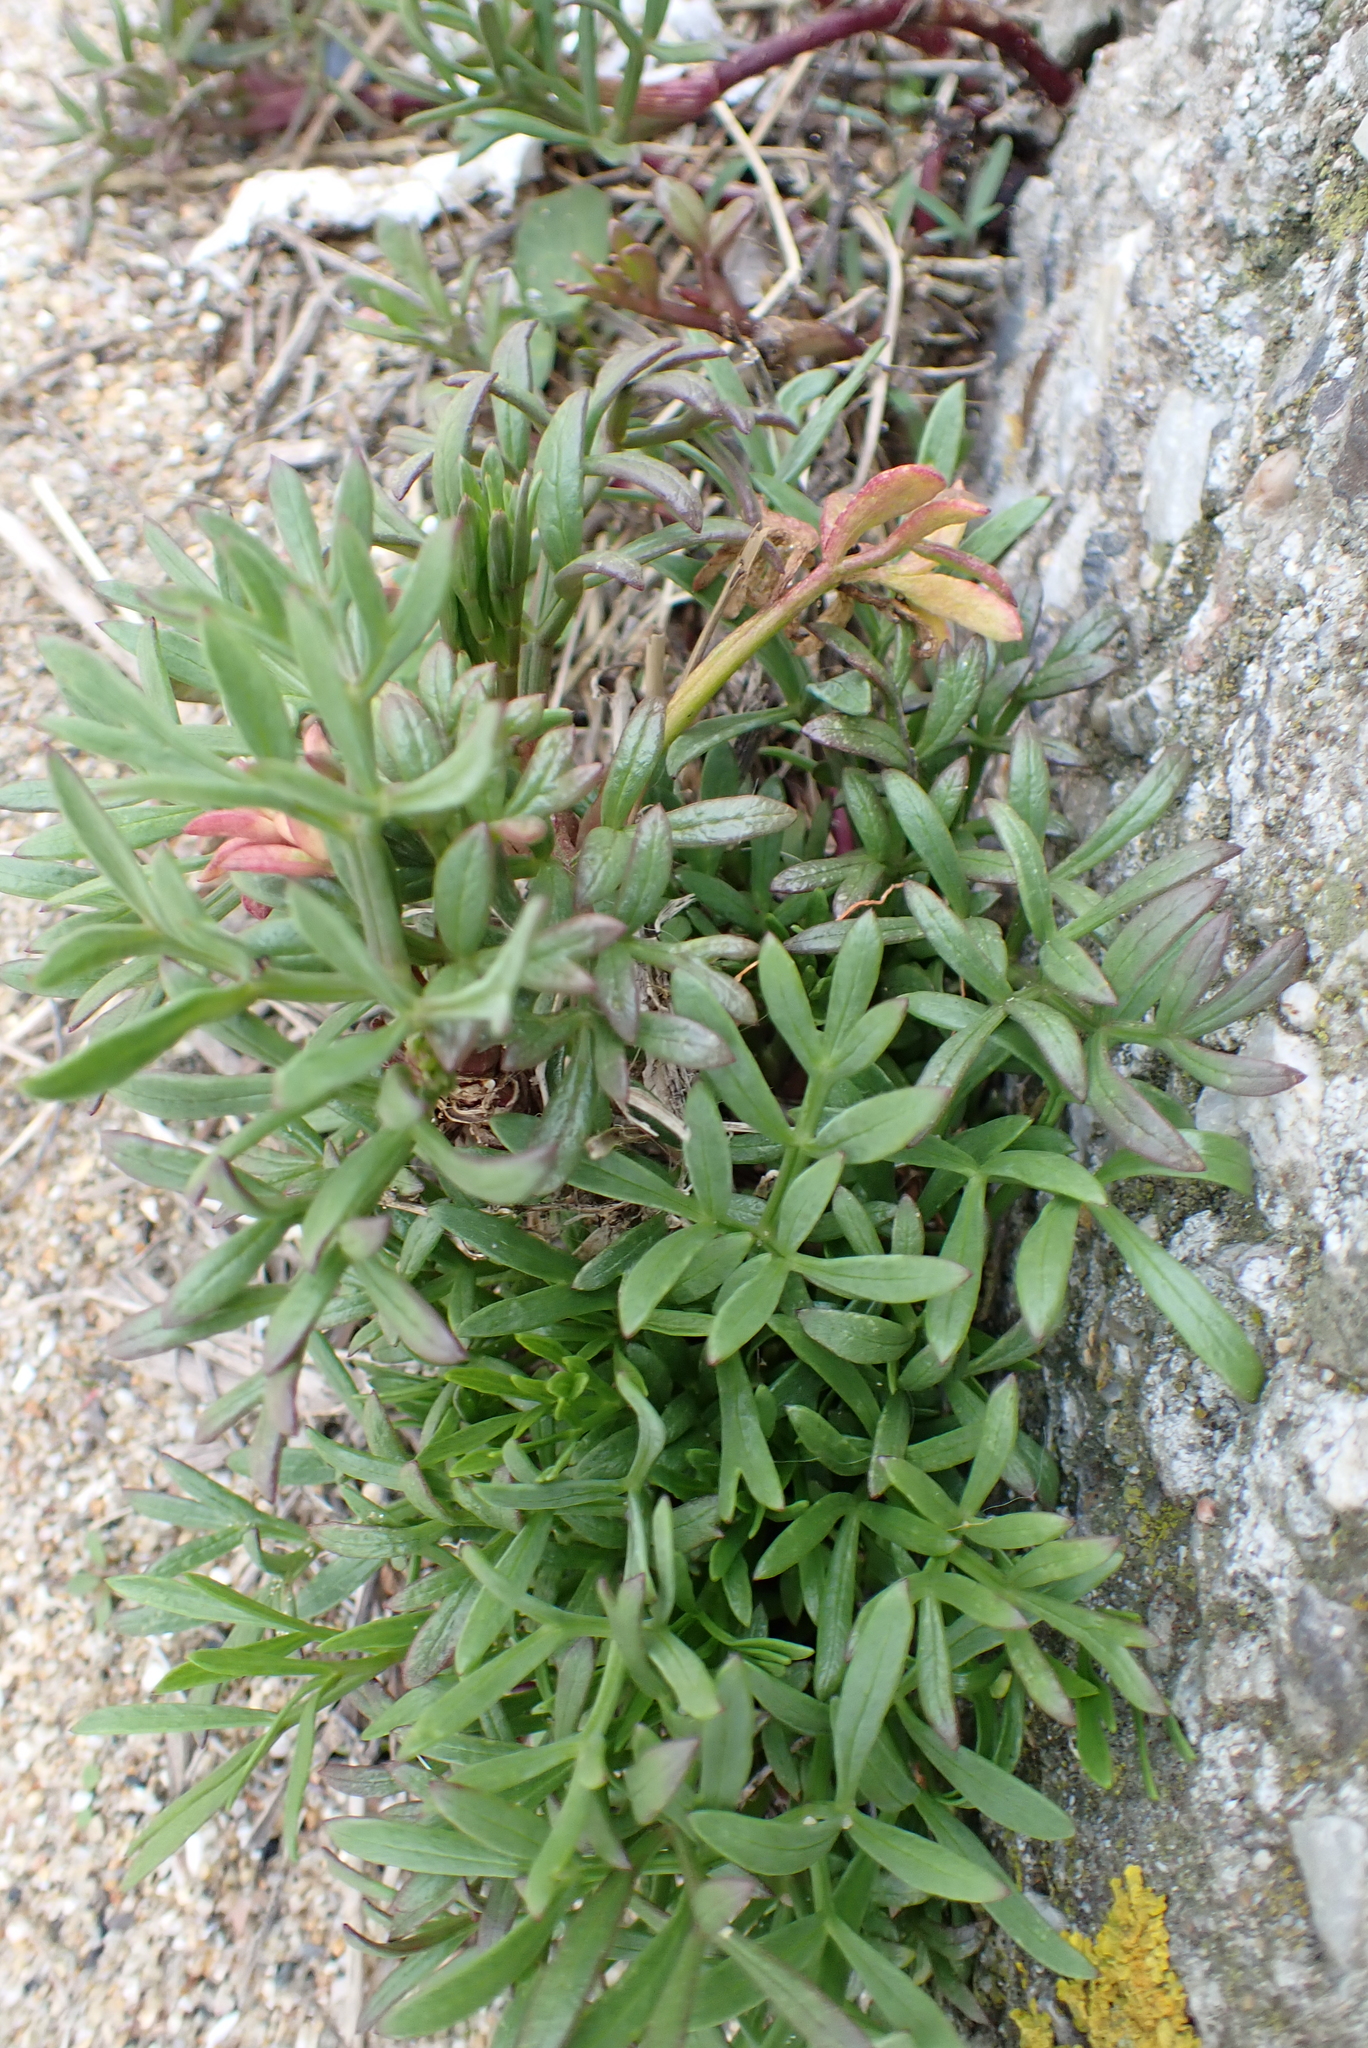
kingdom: Plantae
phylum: Tracheophyta
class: Magnoliopsida
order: Apiales
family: Apiaceae
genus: Crithmum
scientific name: Crithmum maritimum
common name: Rock samphire
